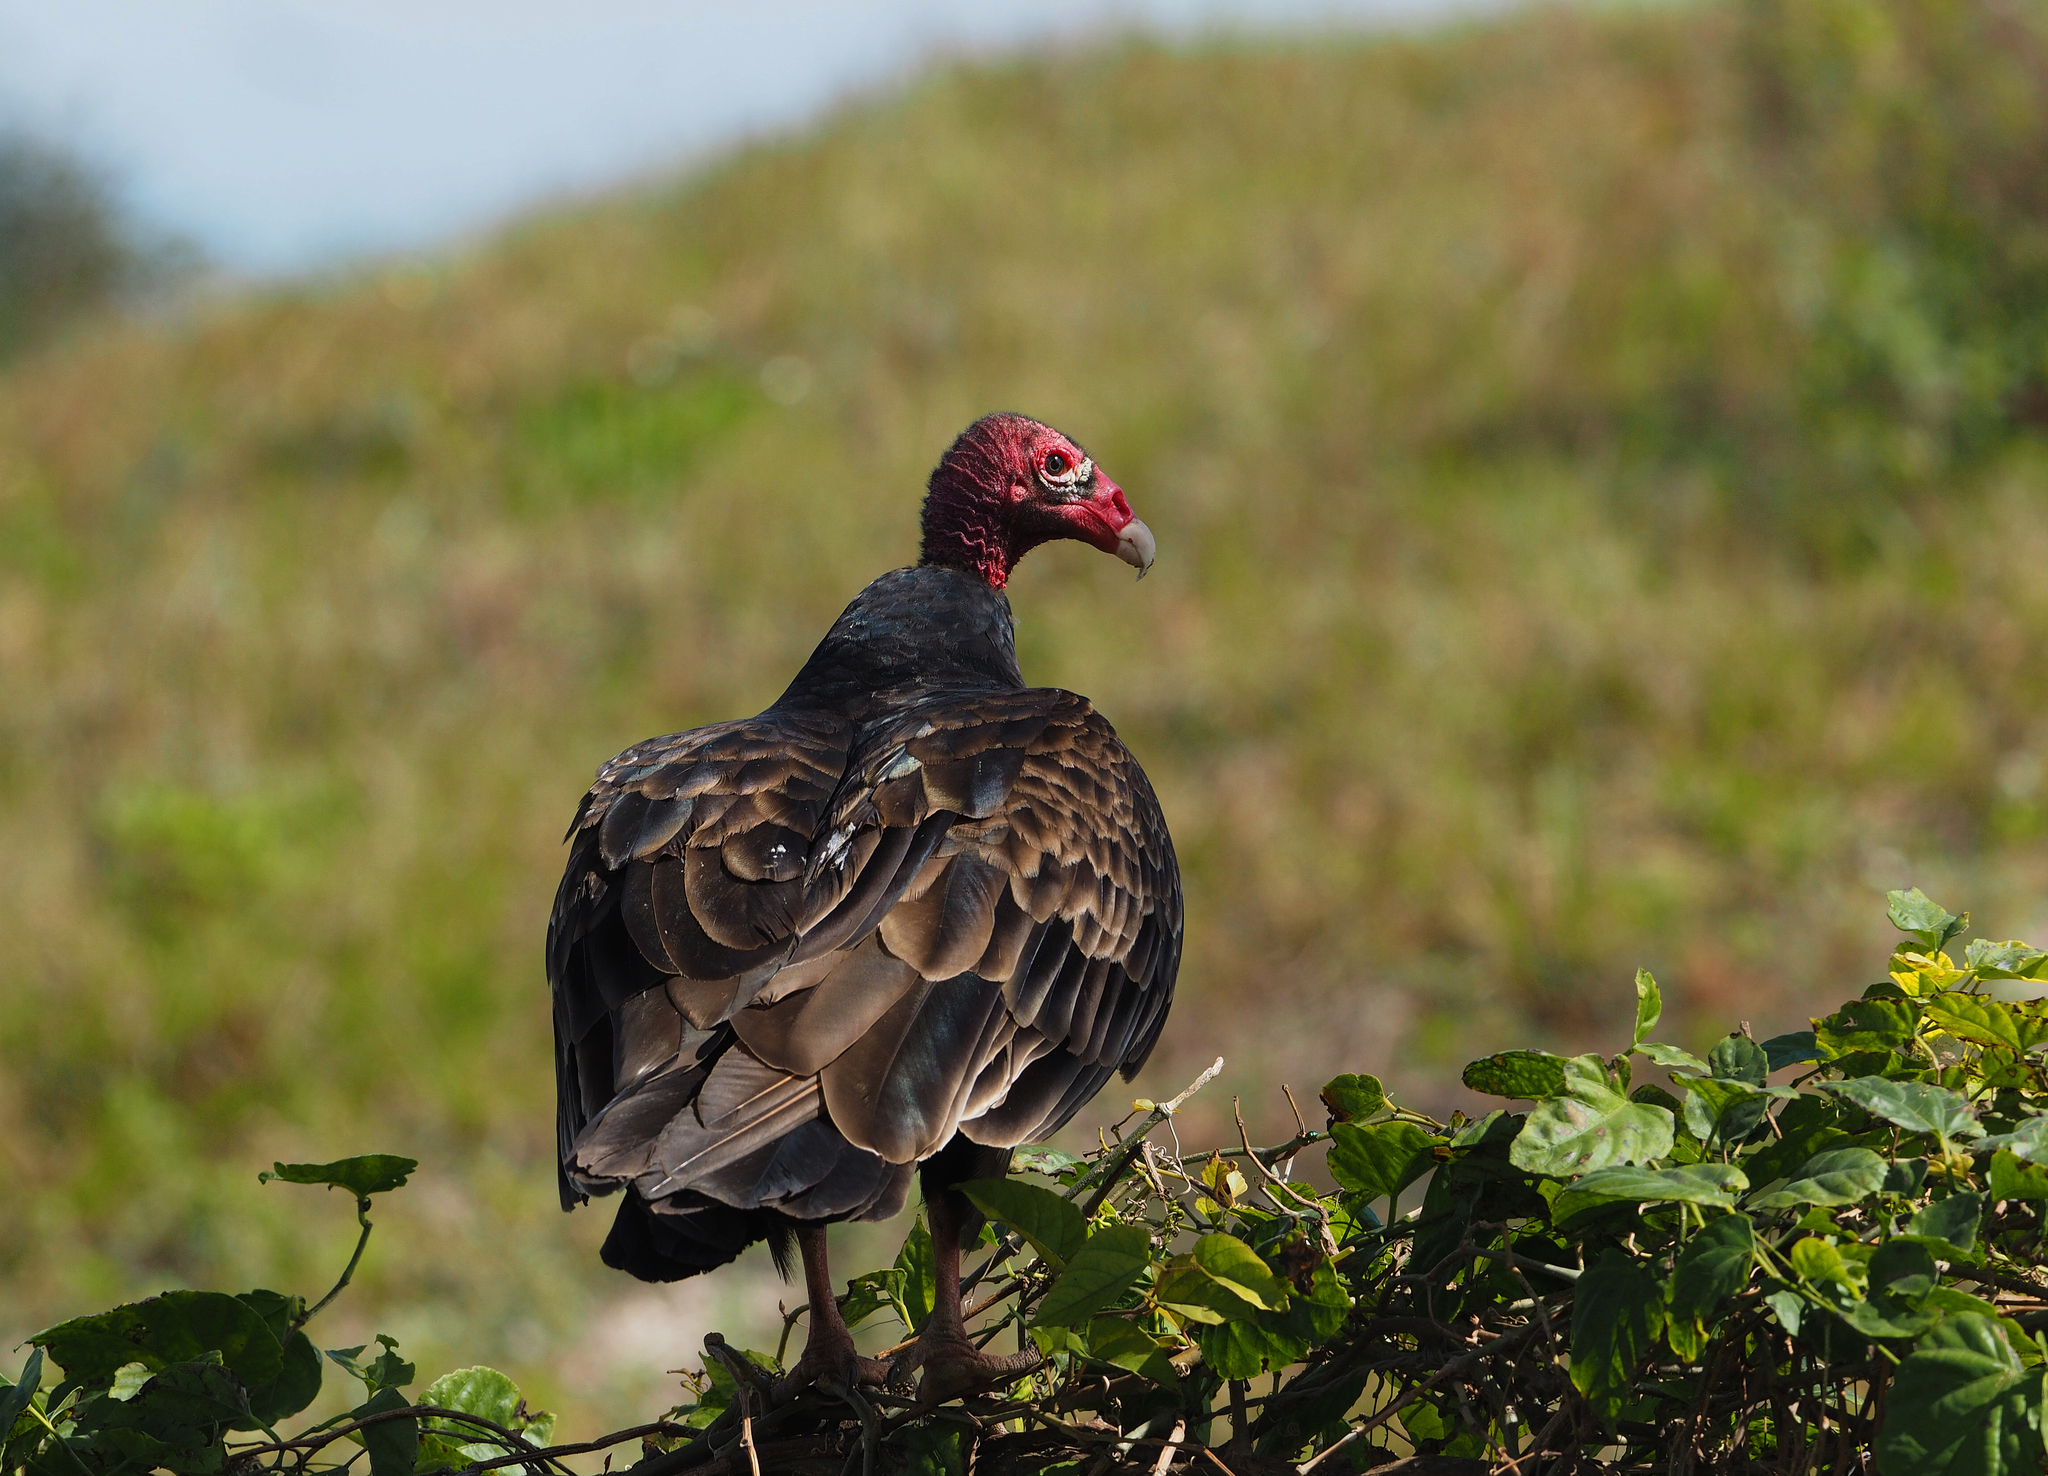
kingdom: Animalia
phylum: Chordata
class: Aves
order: Accipitriformes
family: Cathartidae
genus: Cathartes
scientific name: Cathartes aura
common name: Turkey vulture
